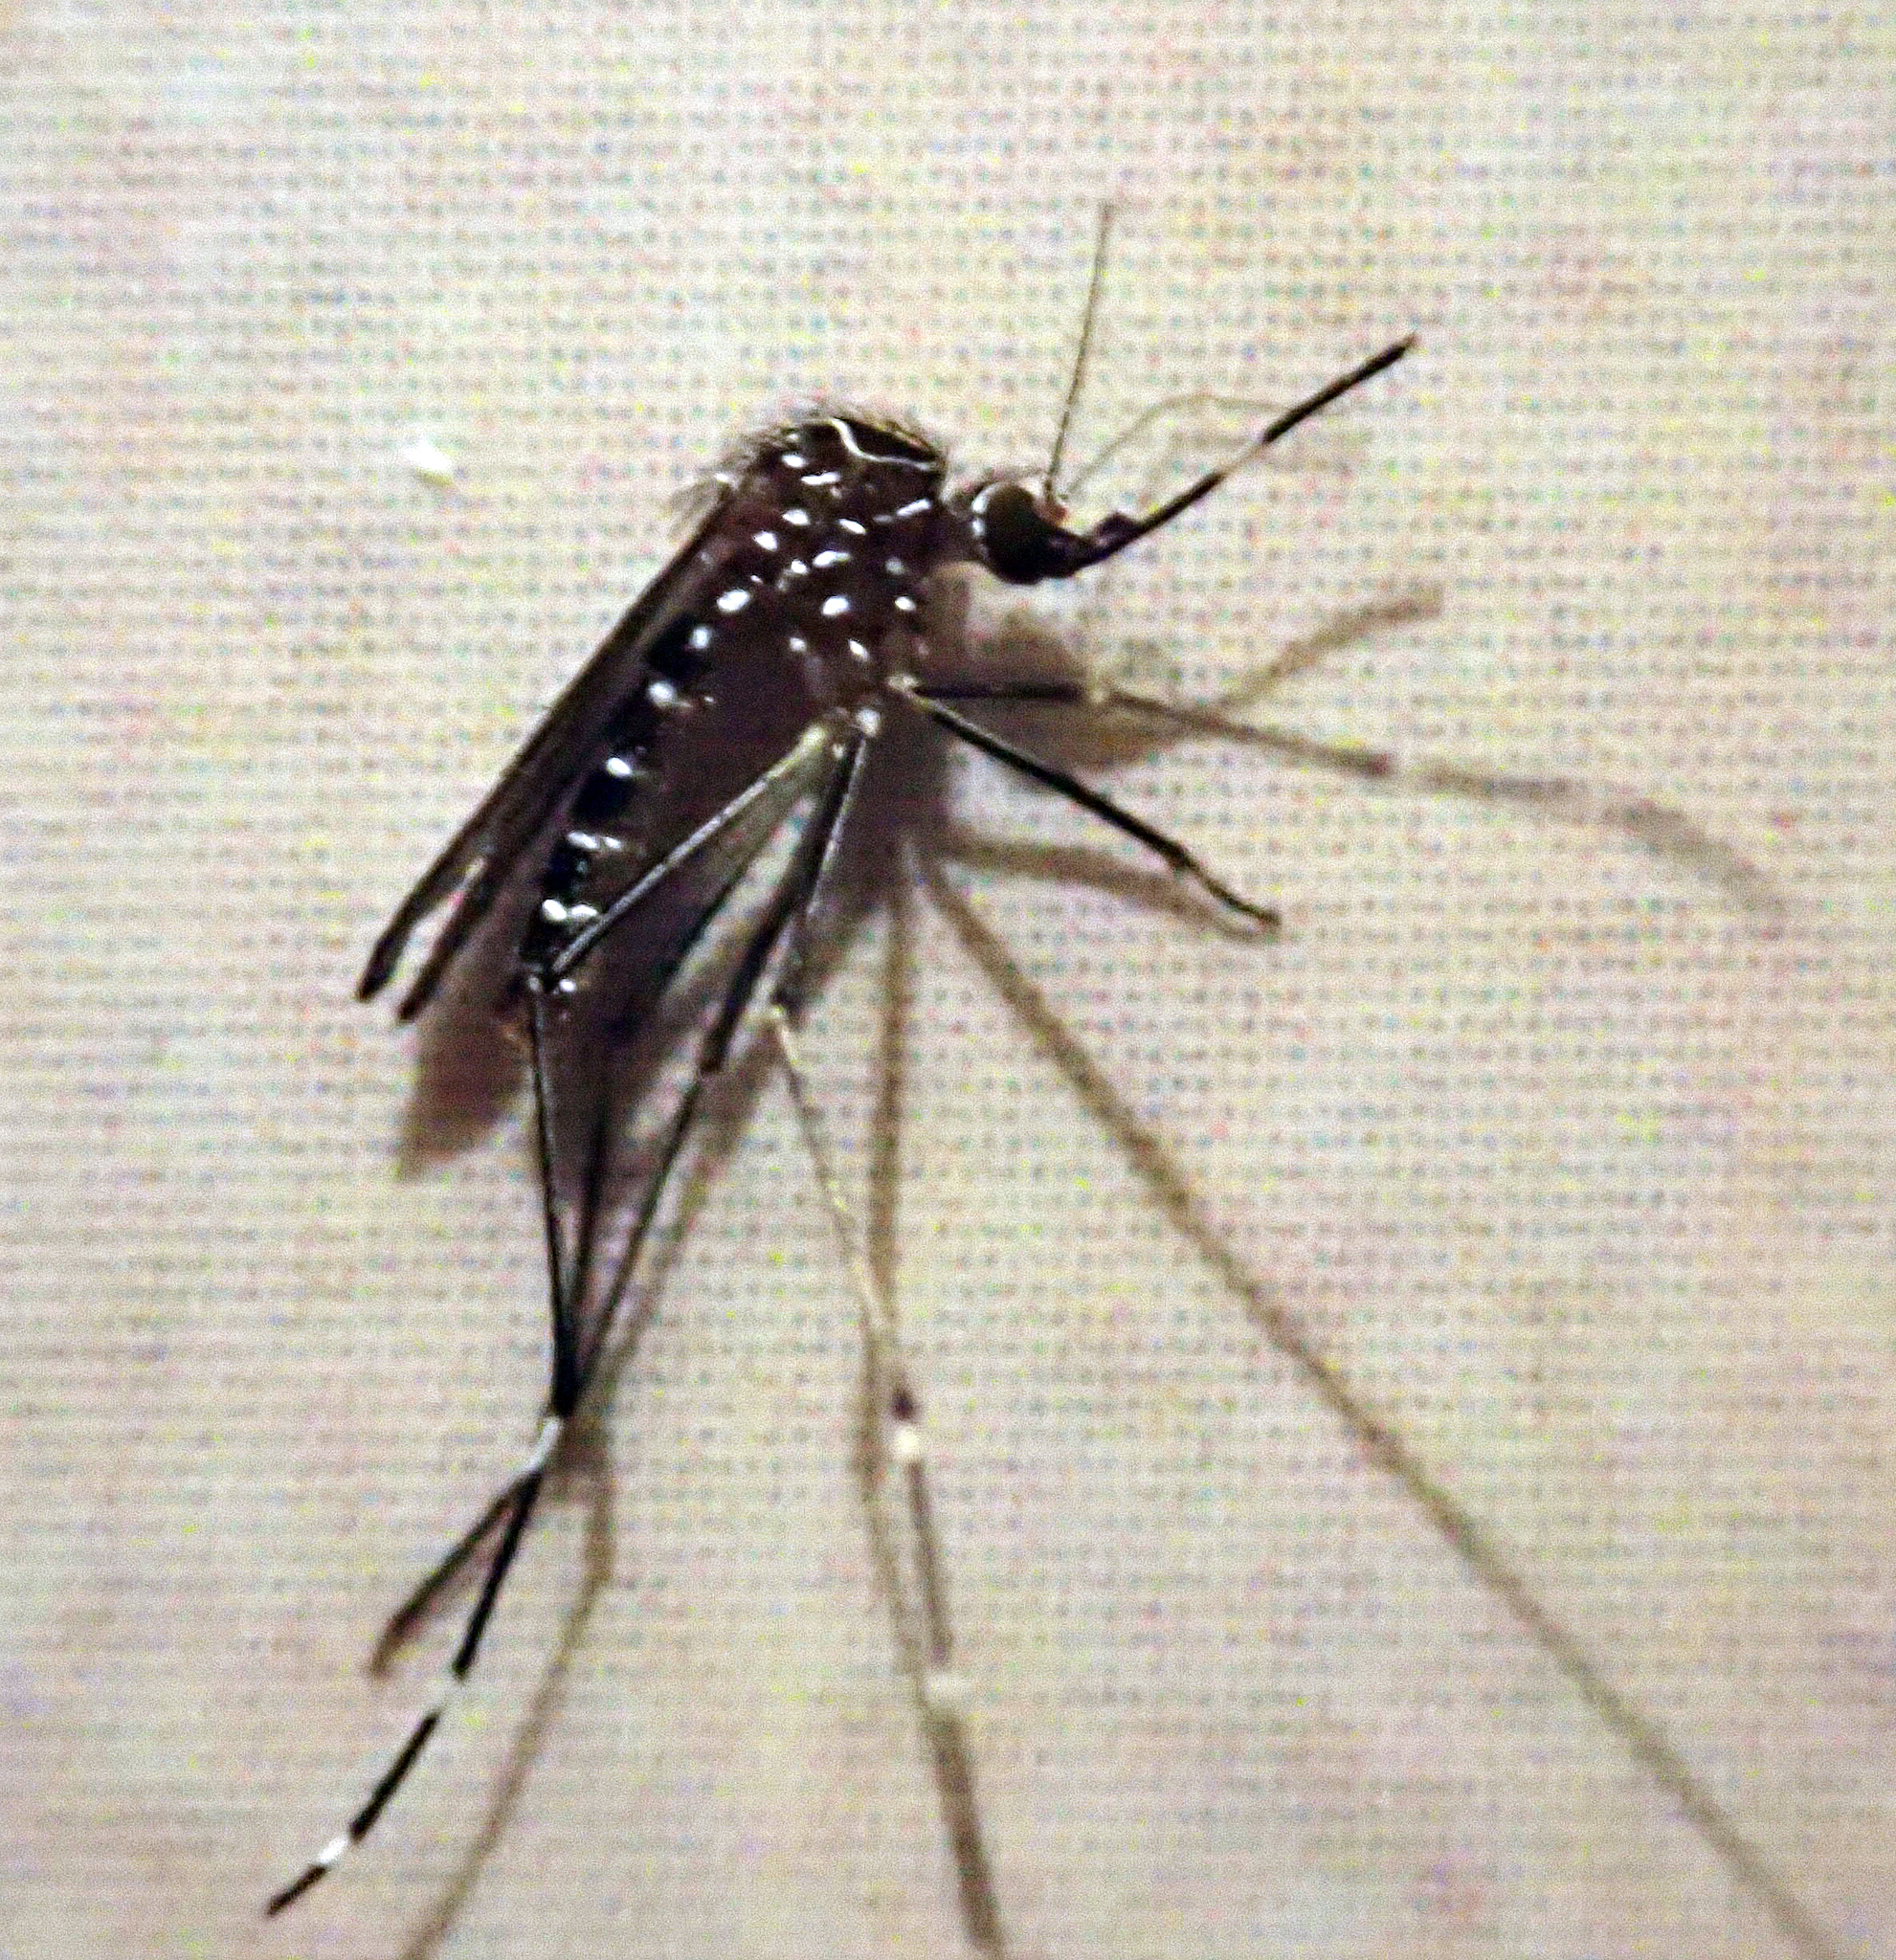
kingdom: Animalia
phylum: Arthropoda
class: Insecta
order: Diptera
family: Culicidae
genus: Aedes
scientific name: Aedes notoscriptus
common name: Australian backyard mosquito
